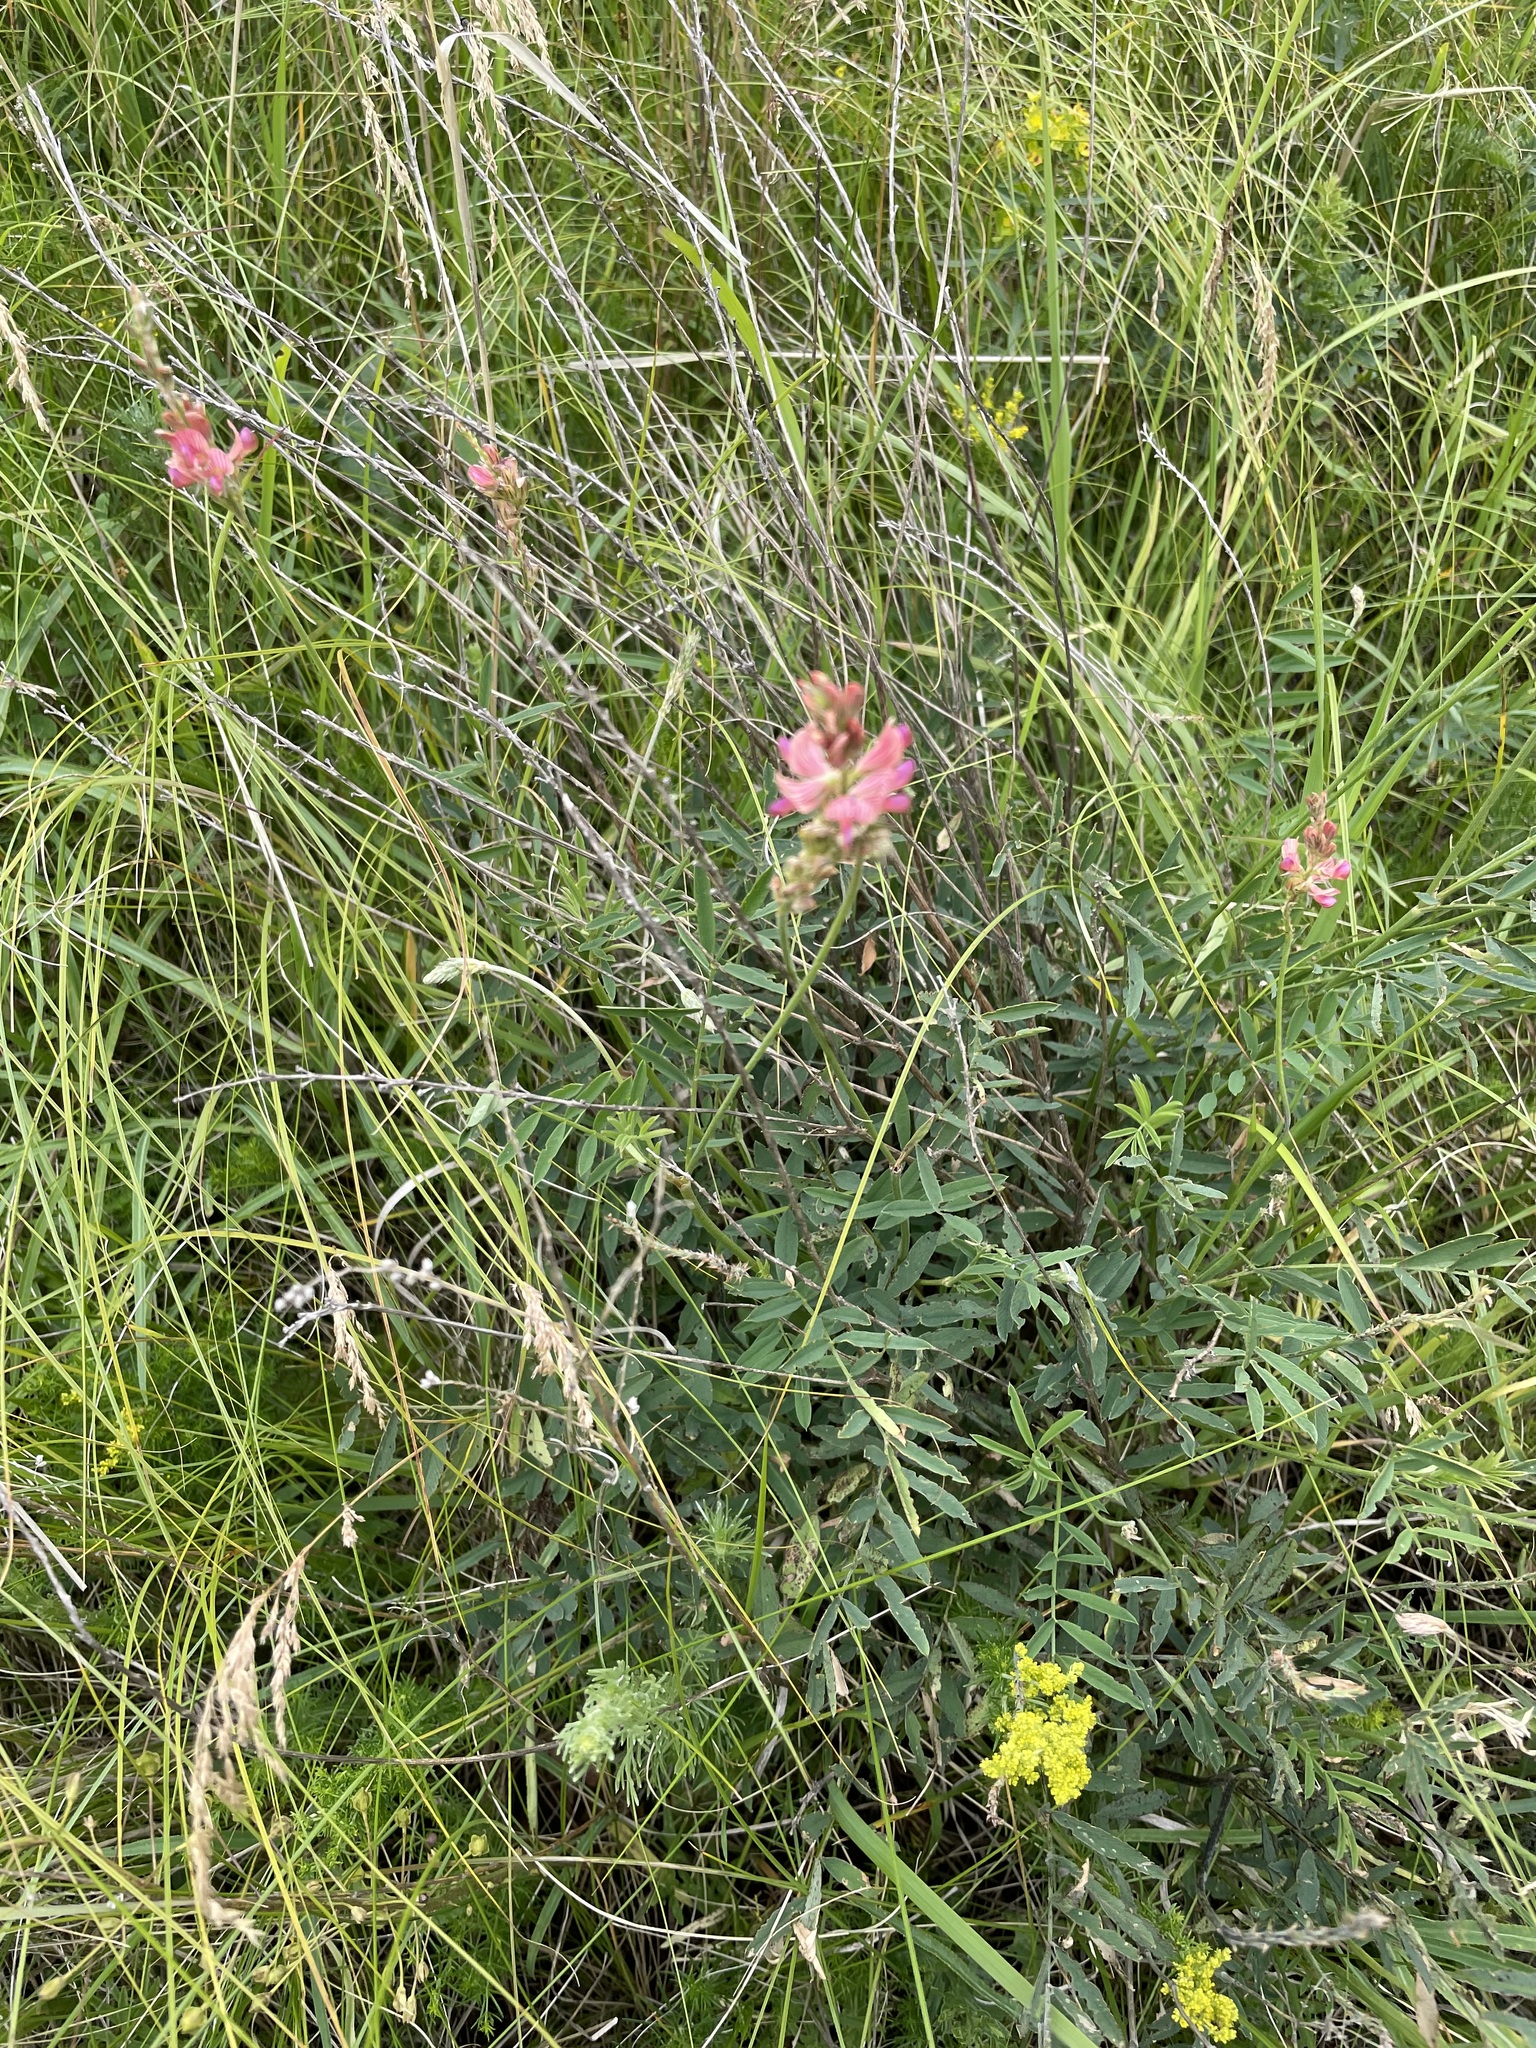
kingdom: Plantae
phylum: Tracheophyta
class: Magnoliopsida
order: Fabales
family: Fabaceae
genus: Onobrychis
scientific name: Onobrychis arenaria
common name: Sand esparcet
